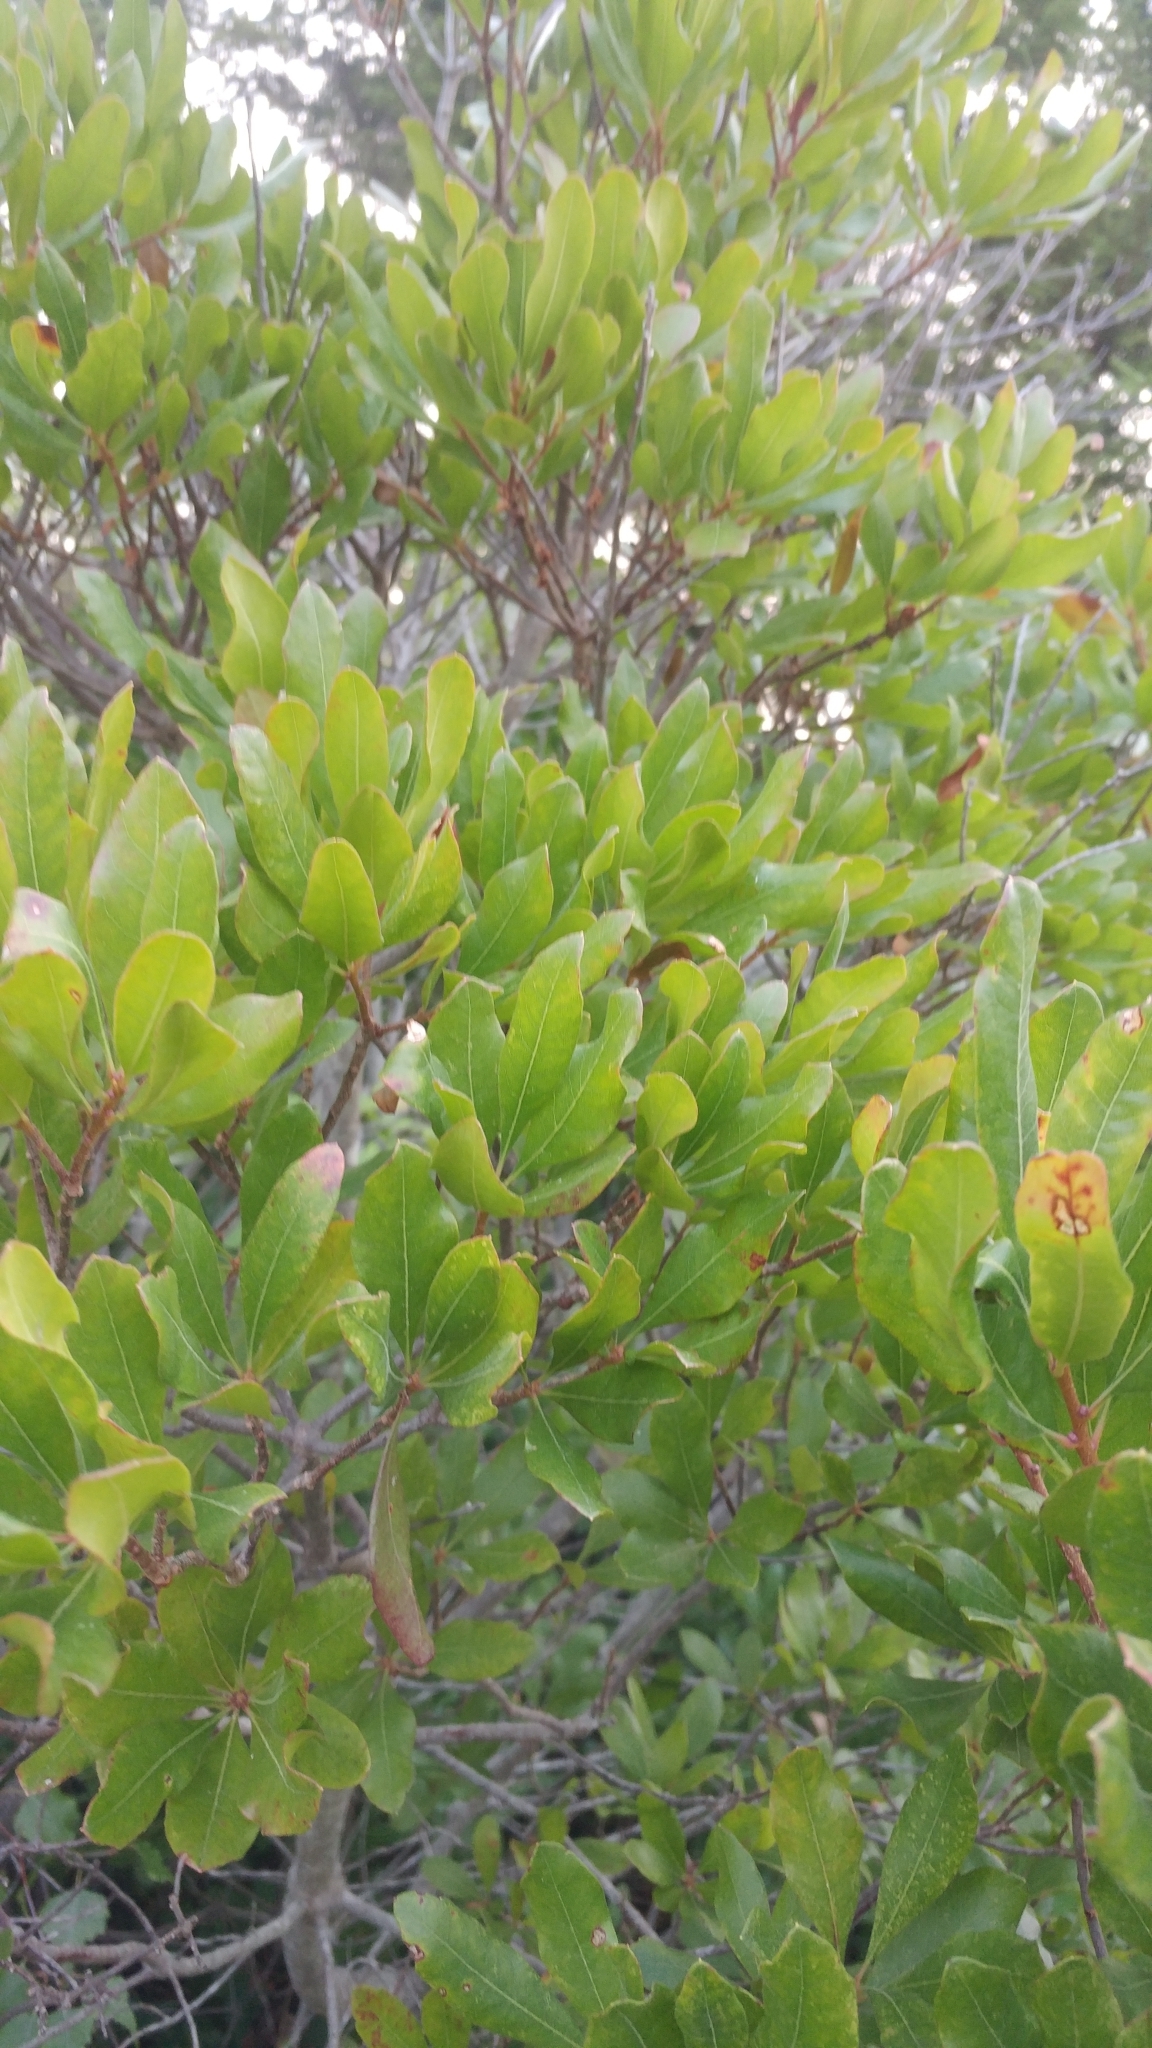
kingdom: Plantae
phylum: Tracheophyta
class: Magnoliopsida
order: Fagales
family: Myricaceae
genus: Morella
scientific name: Morella pensylvanica
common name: Northern bayberry
